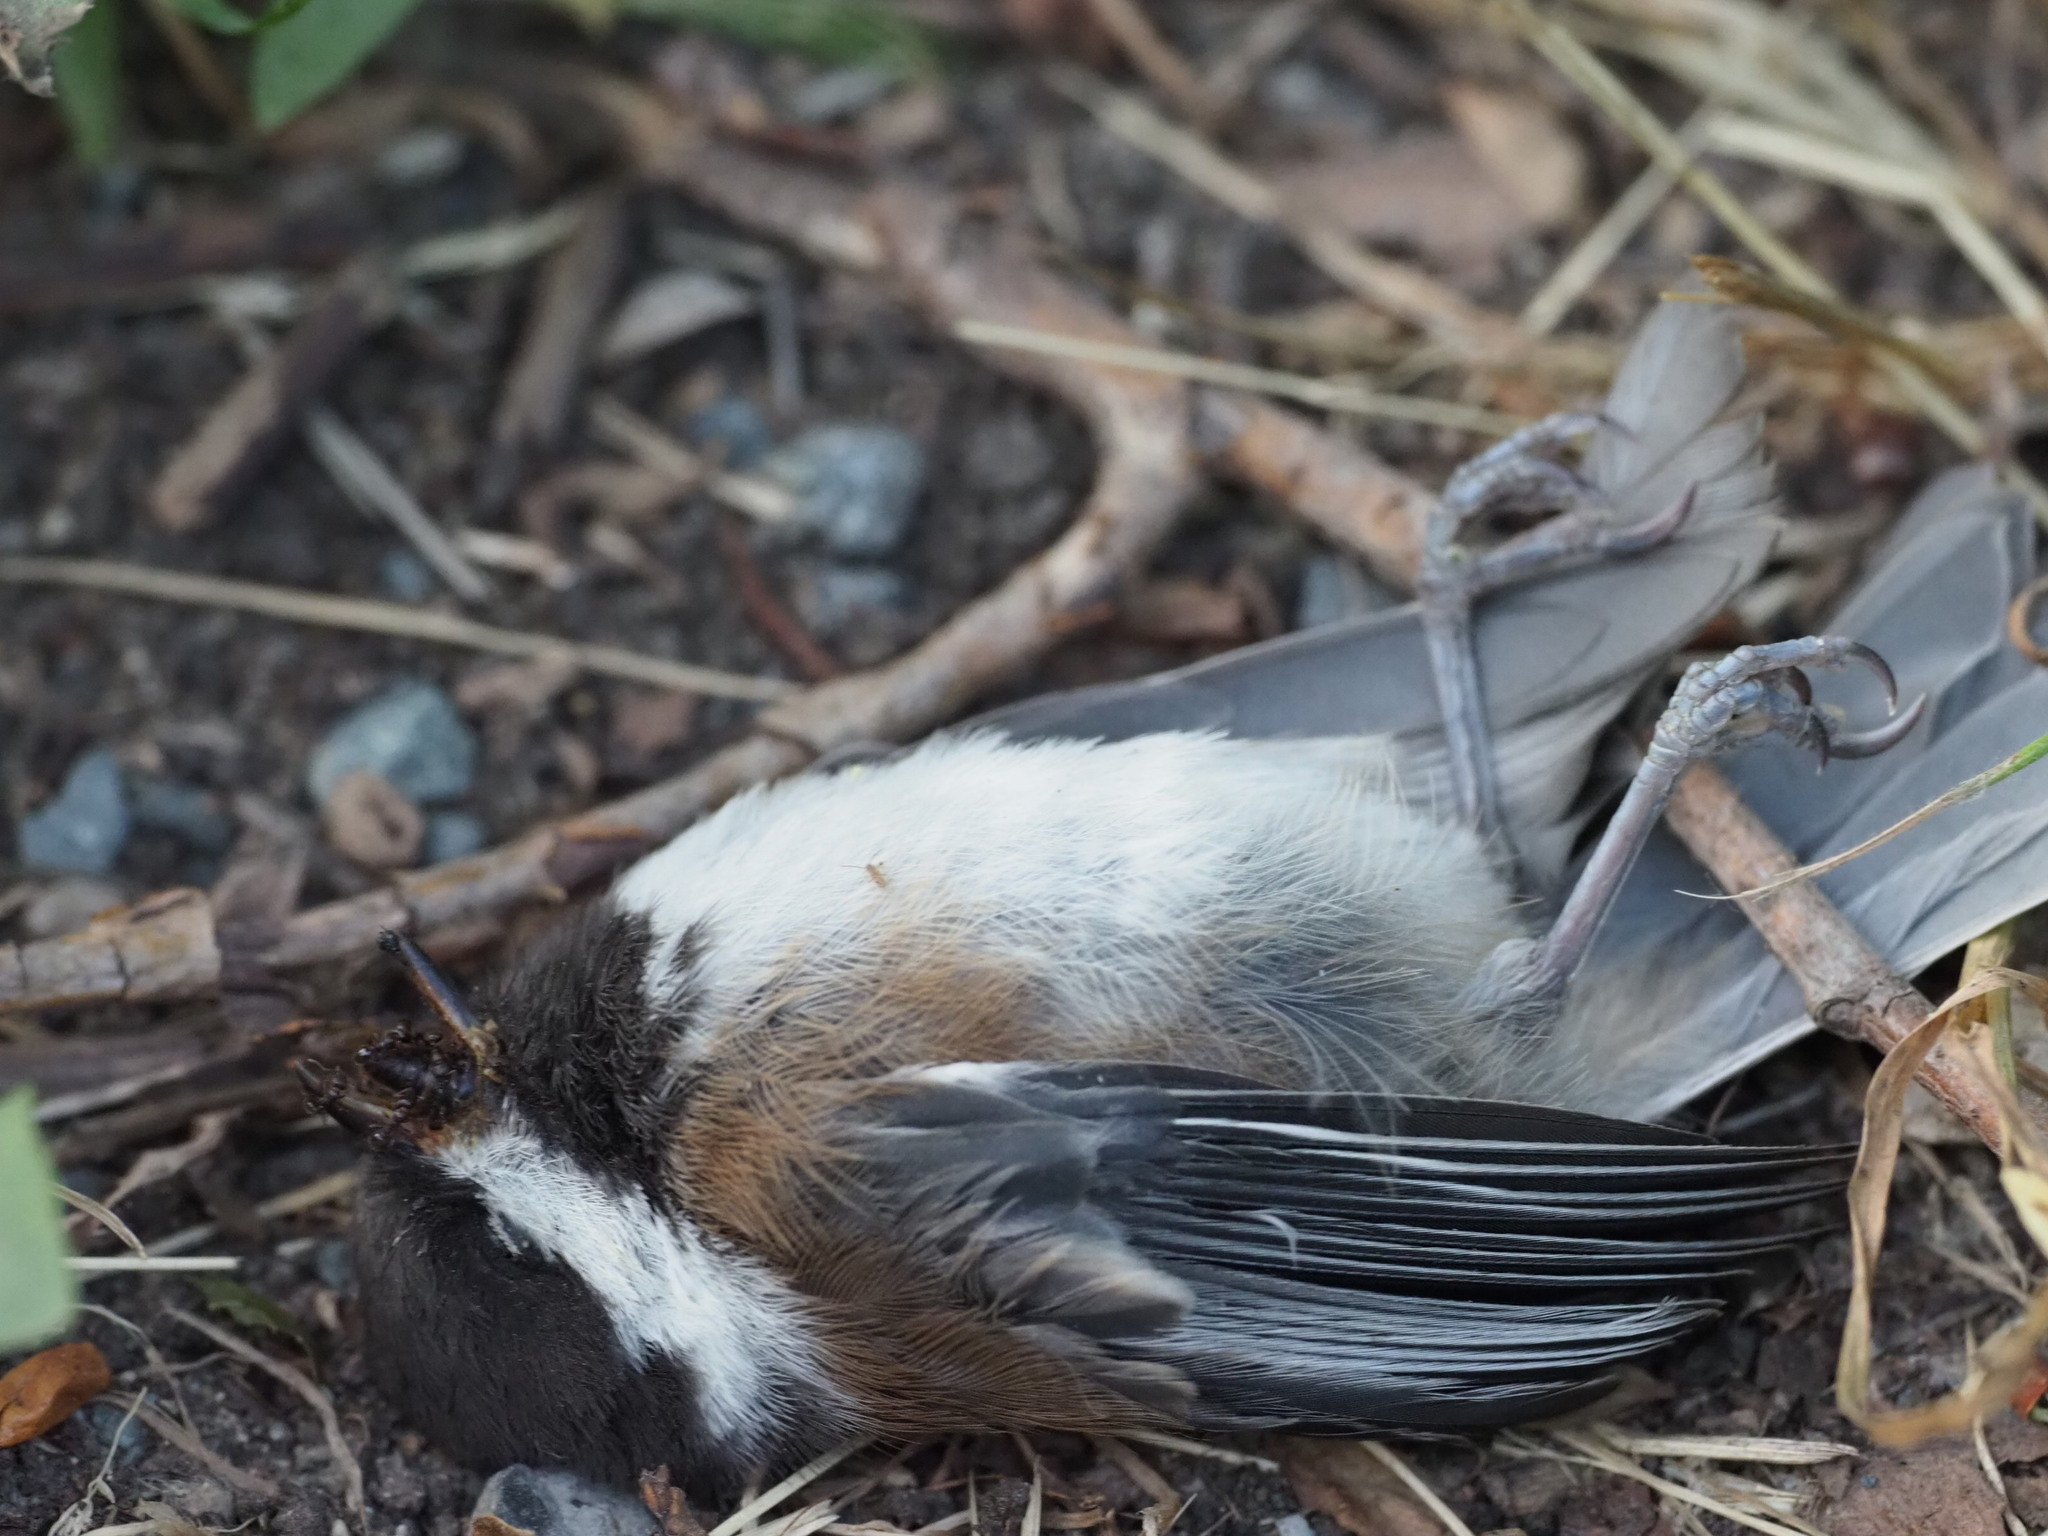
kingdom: Animalia
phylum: Chordata
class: Aves
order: Passeriformes
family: Paridae
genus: Poecile
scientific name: Poecile rufescens
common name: Chestnut-backed chickadee
